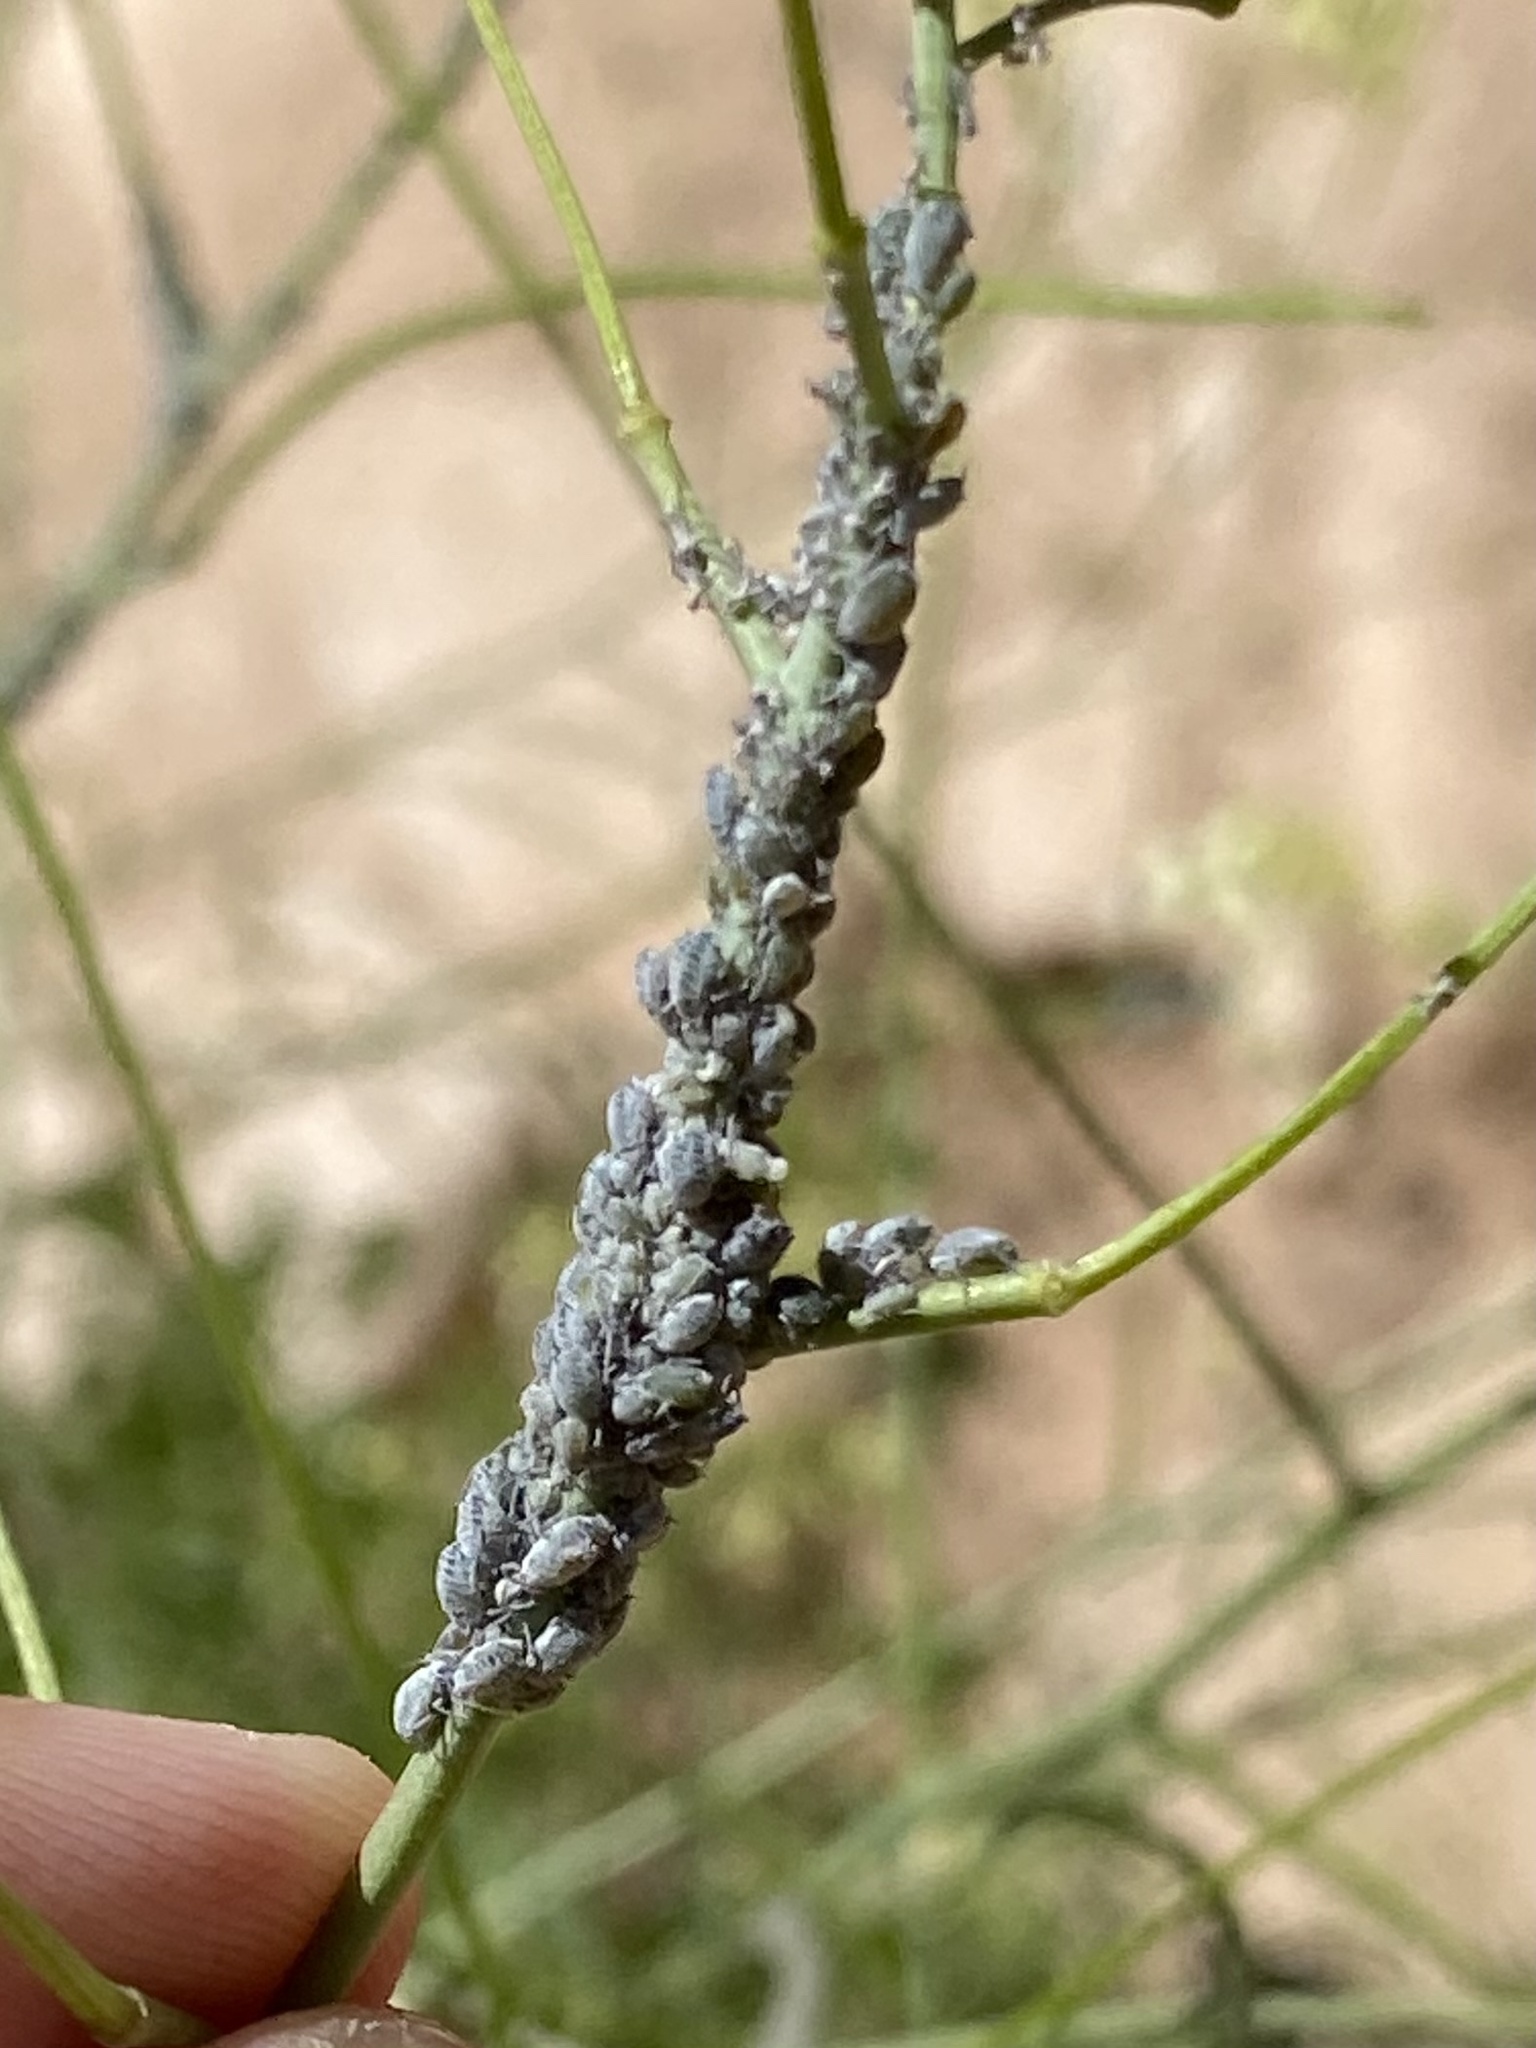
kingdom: Animalia
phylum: Arthropoda
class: Insecta
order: Hemiptera
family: Aphididae
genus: Brevicoryne
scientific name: Brevicoryne brassicae
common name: Cabbage aphid
